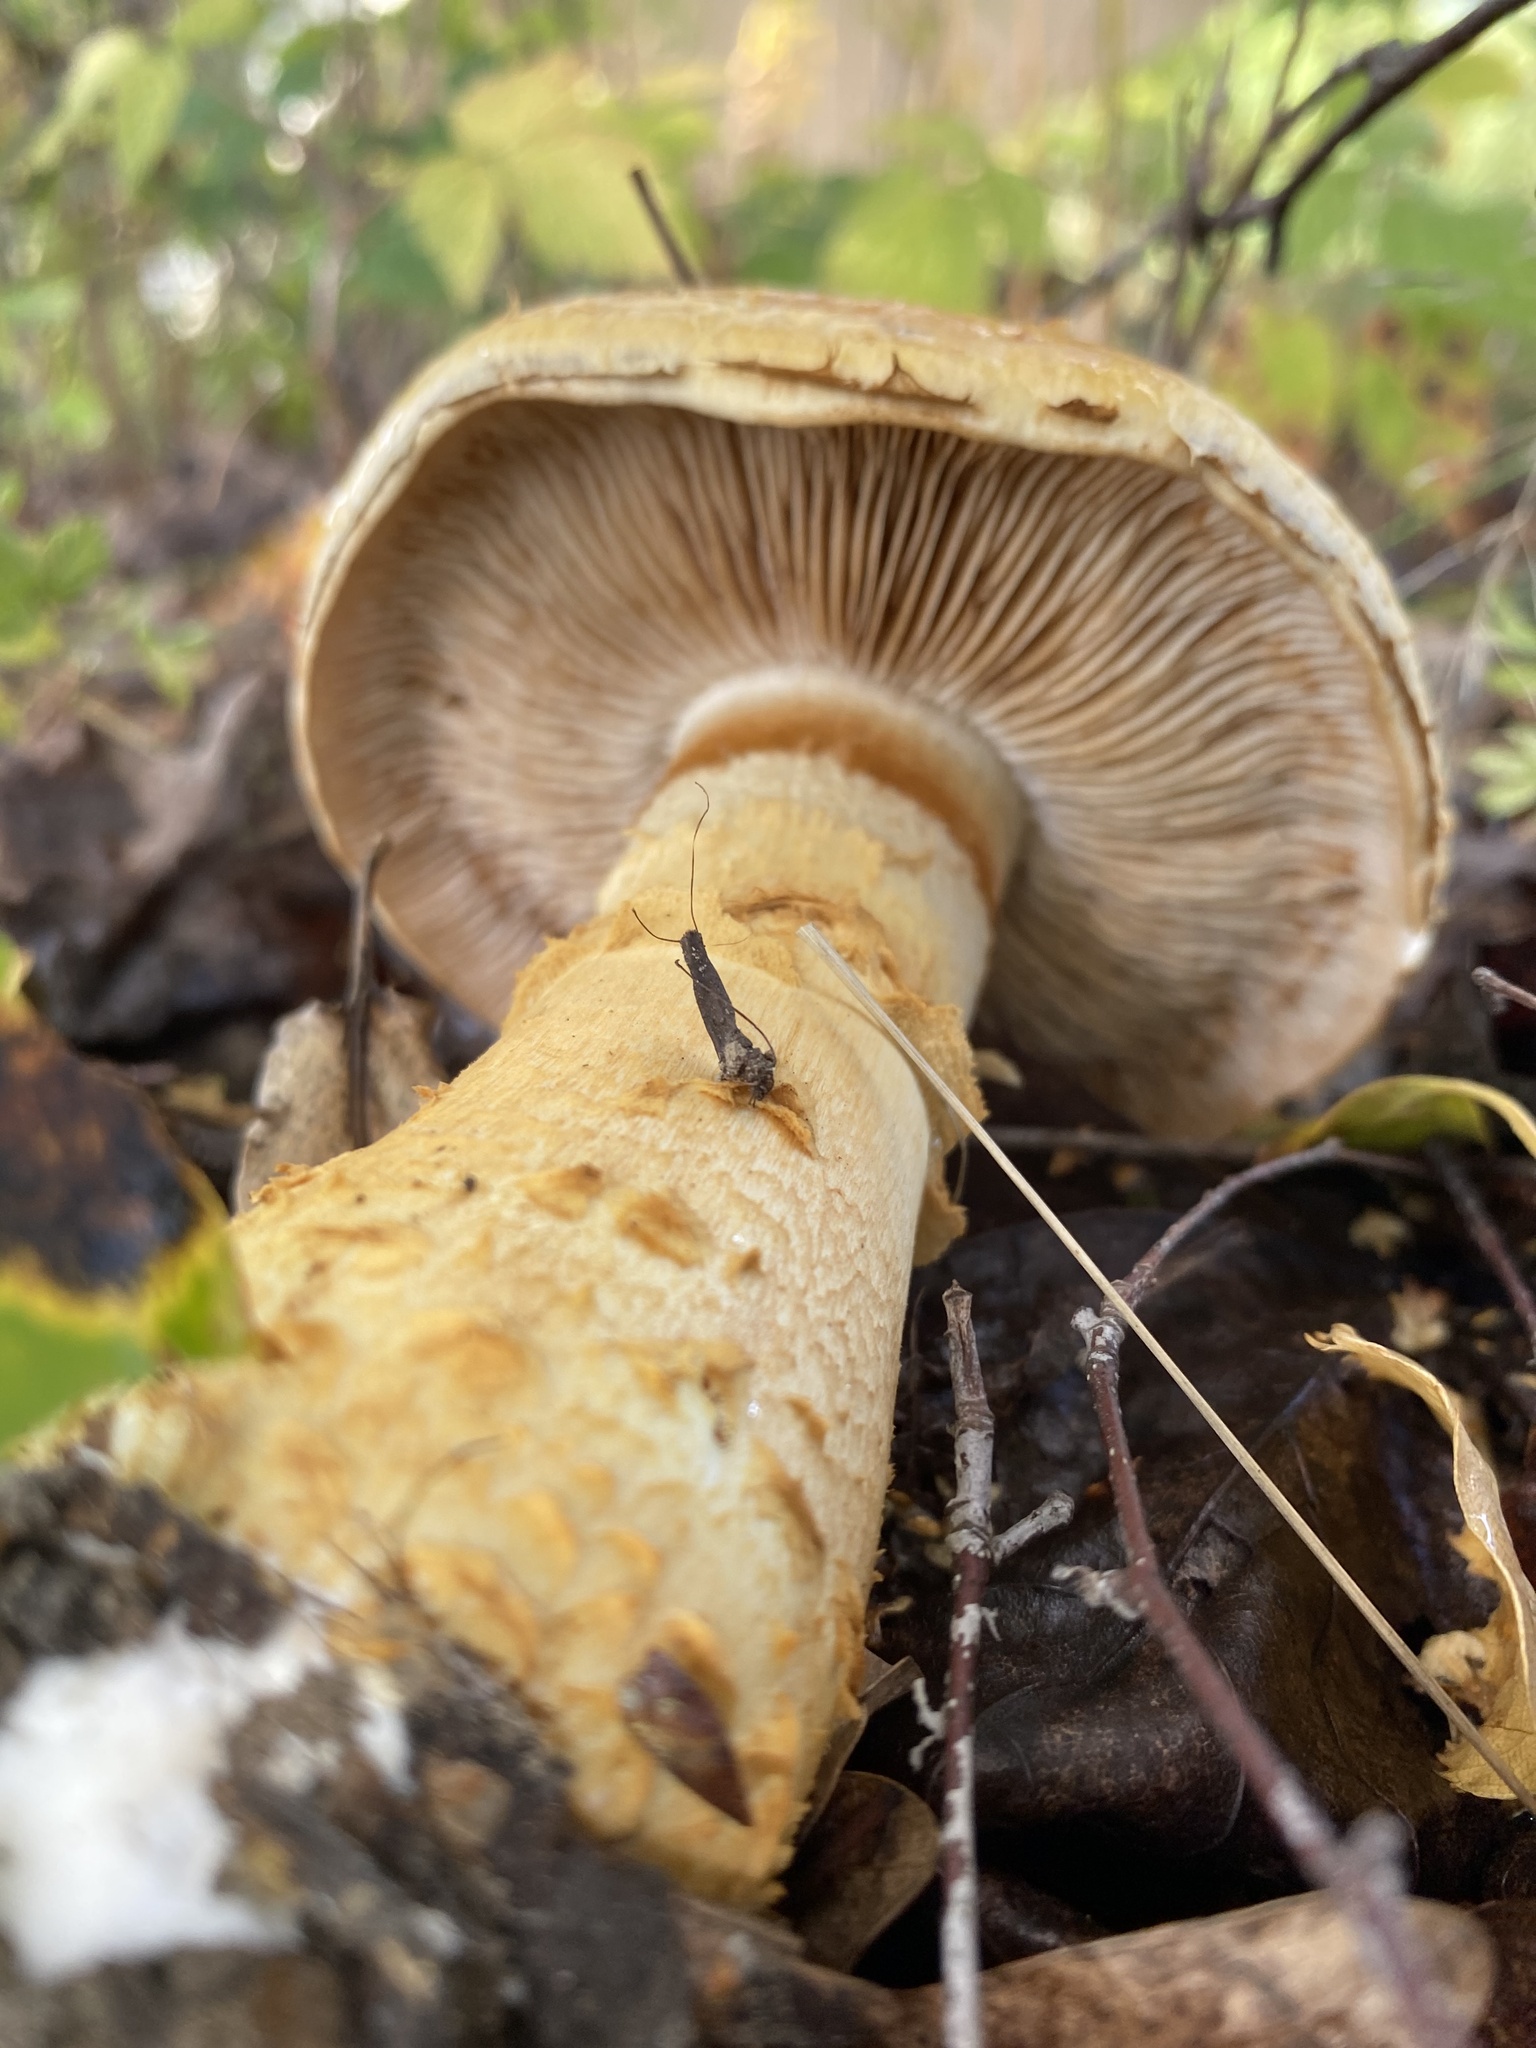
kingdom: Fungi
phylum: Basidiomycota
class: Agaricomycetes
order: Agaricales
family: Cortinariaceae
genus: Phlegmacium
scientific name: Phlegmacium triumphans
